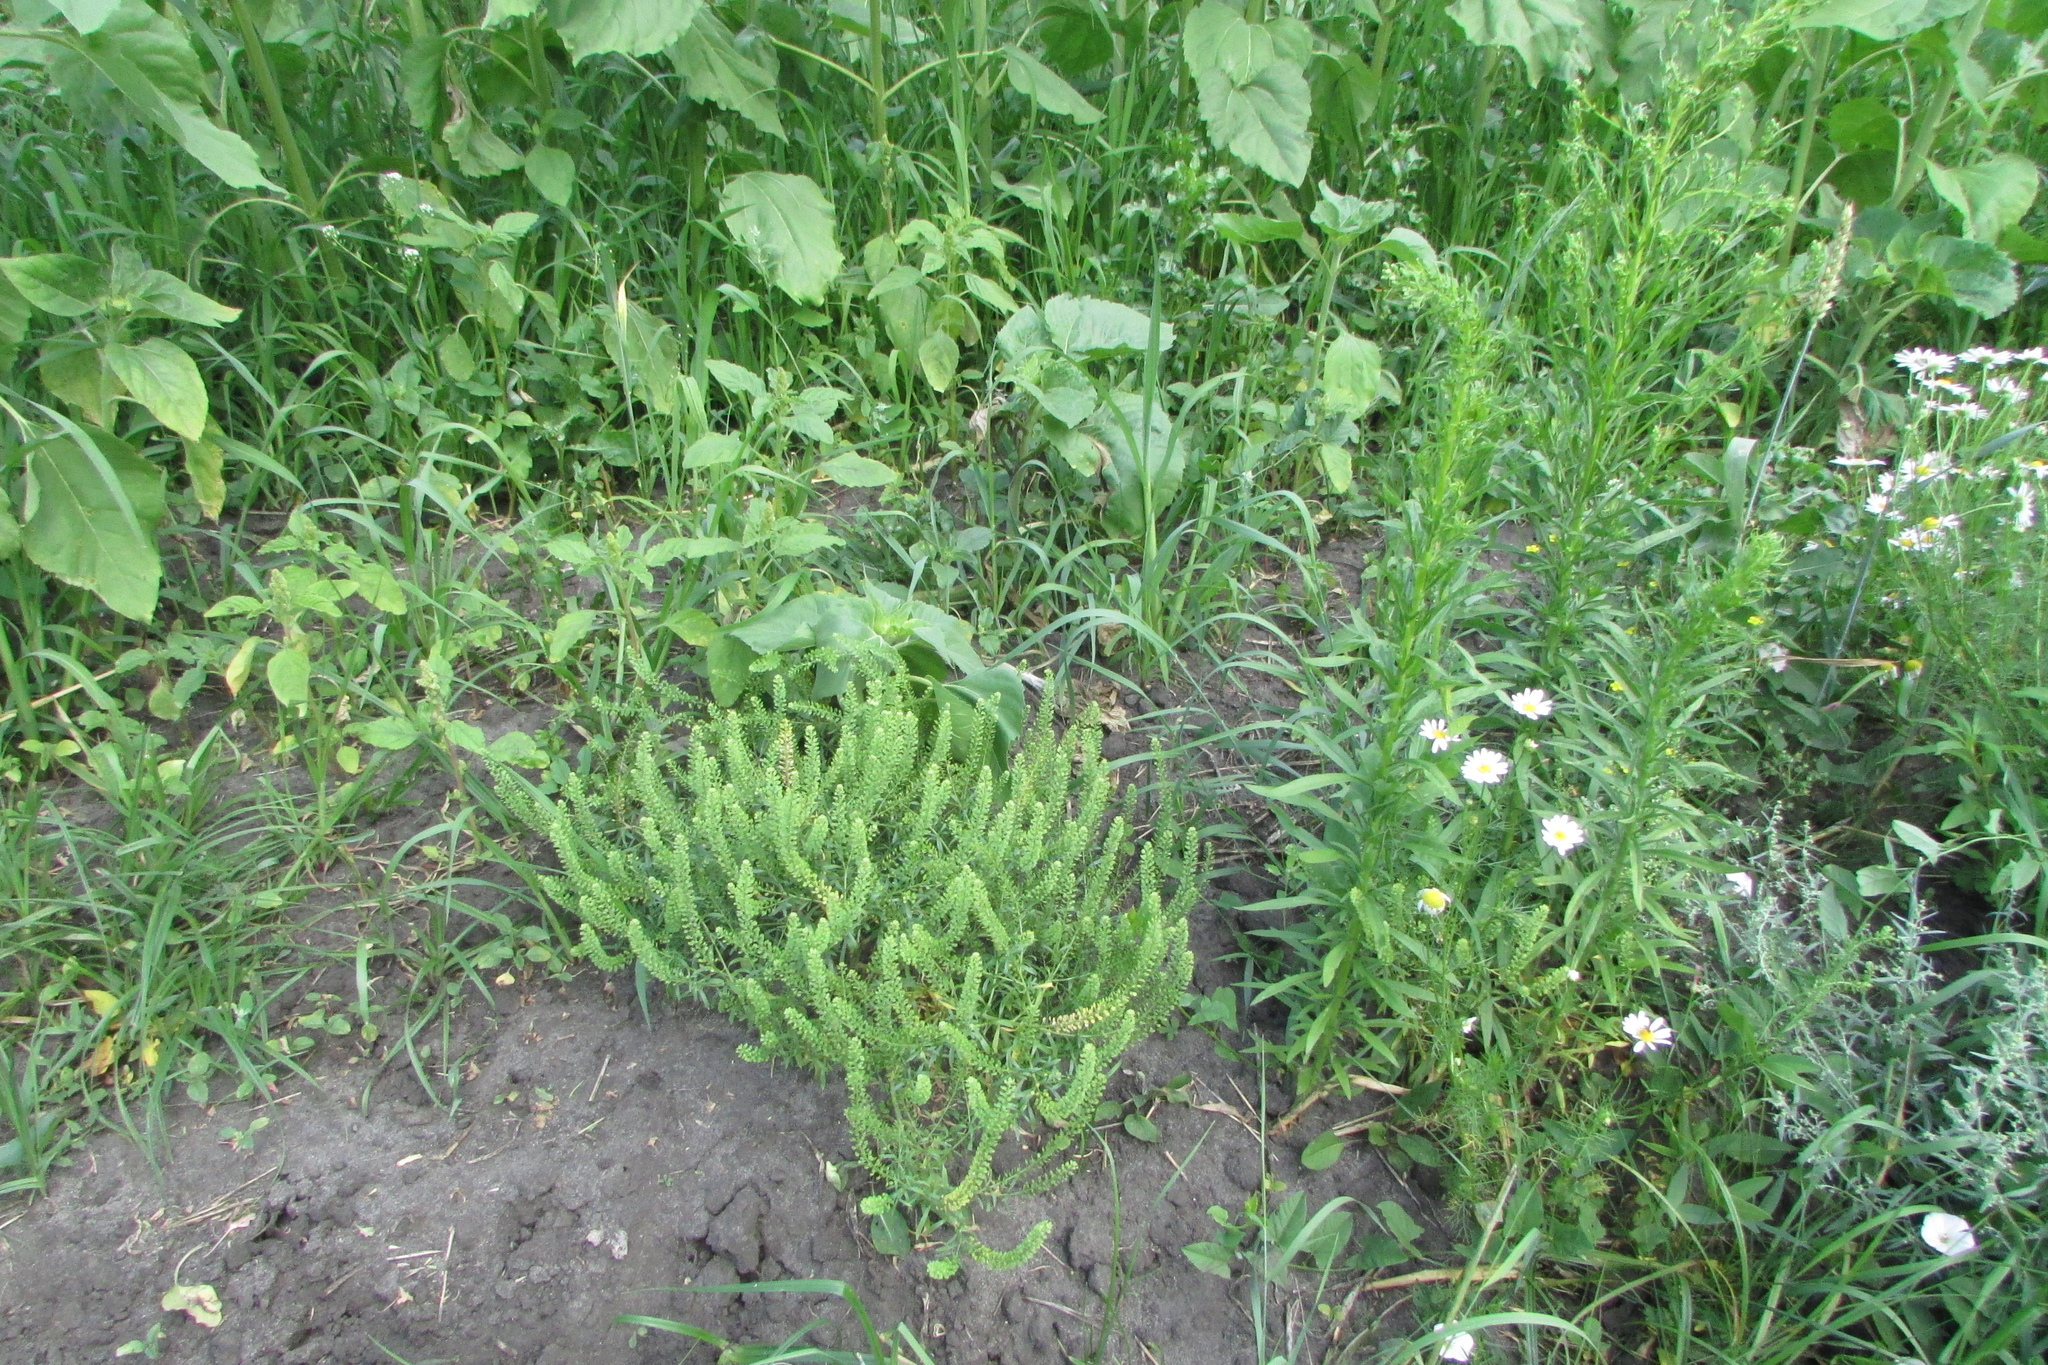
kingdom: Plantae
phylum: Tracheophyta
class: Magnoliopsida
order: Brassicales
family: Brassicaceae
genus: Lepidium
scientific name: Lepidium densiflorum
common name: Miner's pepperwort
